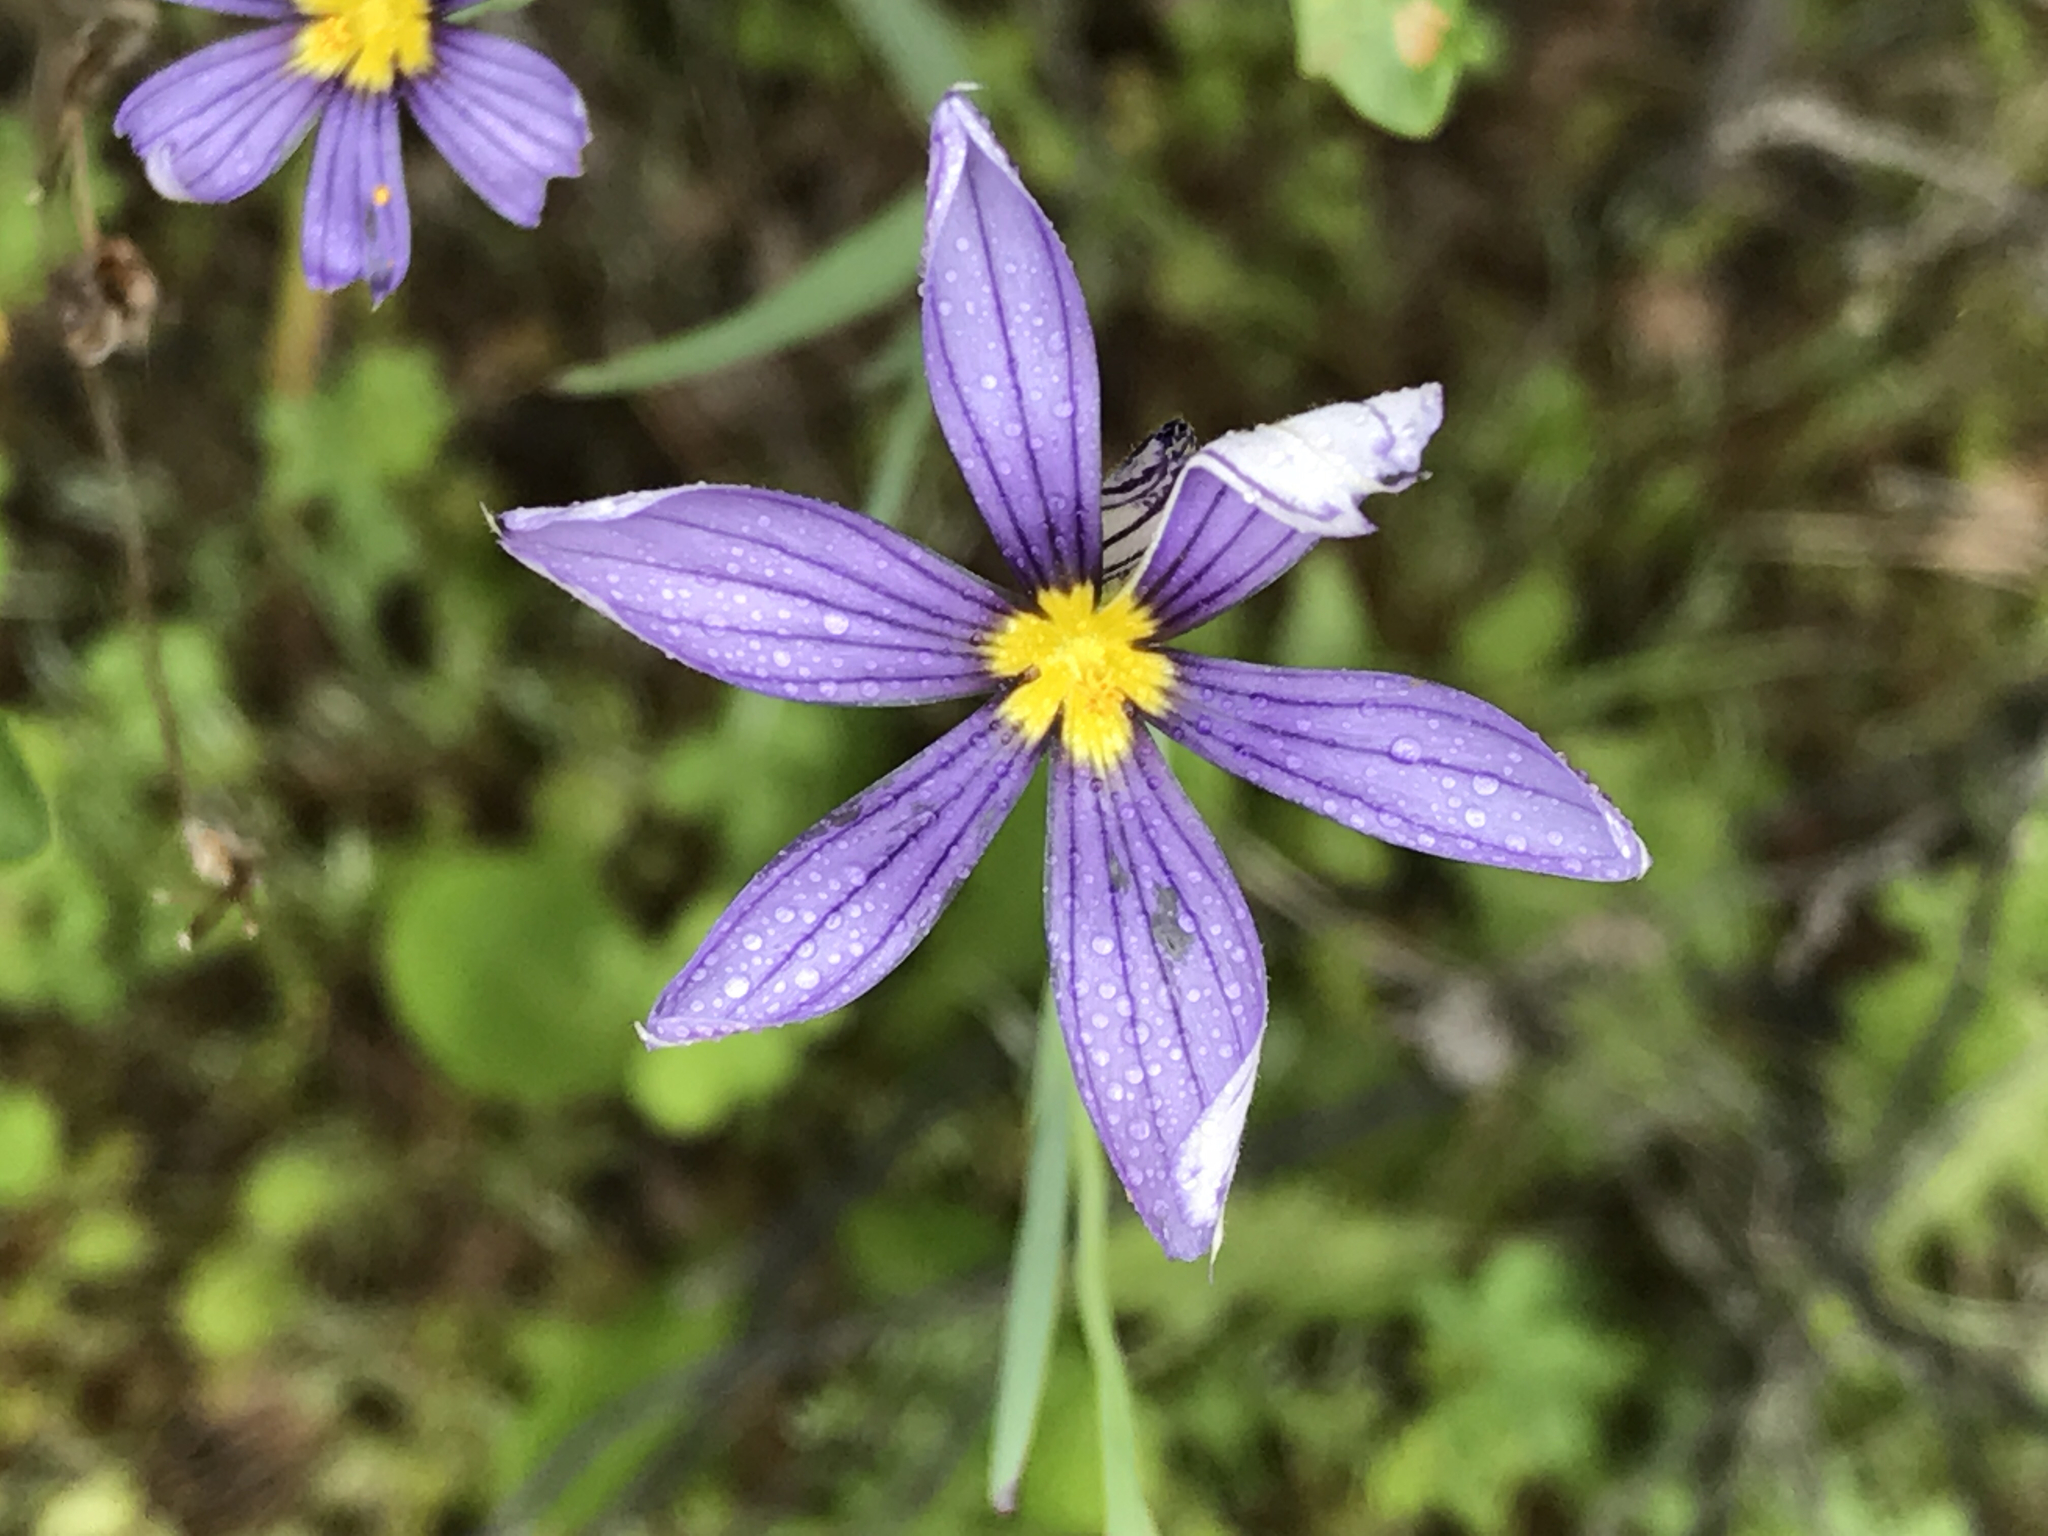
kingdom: Plantae
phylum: Tracheophyta
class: Liliopsida
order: Asparagales
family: Iridaceae
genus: Sisyrinchium
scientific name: Sisyrinchium bellum
